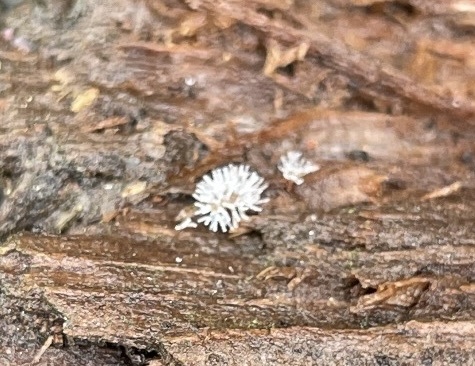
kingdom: Protozoa
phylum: Mycetozoa
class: Protosteliomycetes
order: Ceratiomyxales
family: Ceratiomyxaceae
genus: Ceratiomyxa
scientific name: Ceratiomyxa fruticulosa
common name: Honeycomb coral slime mold
